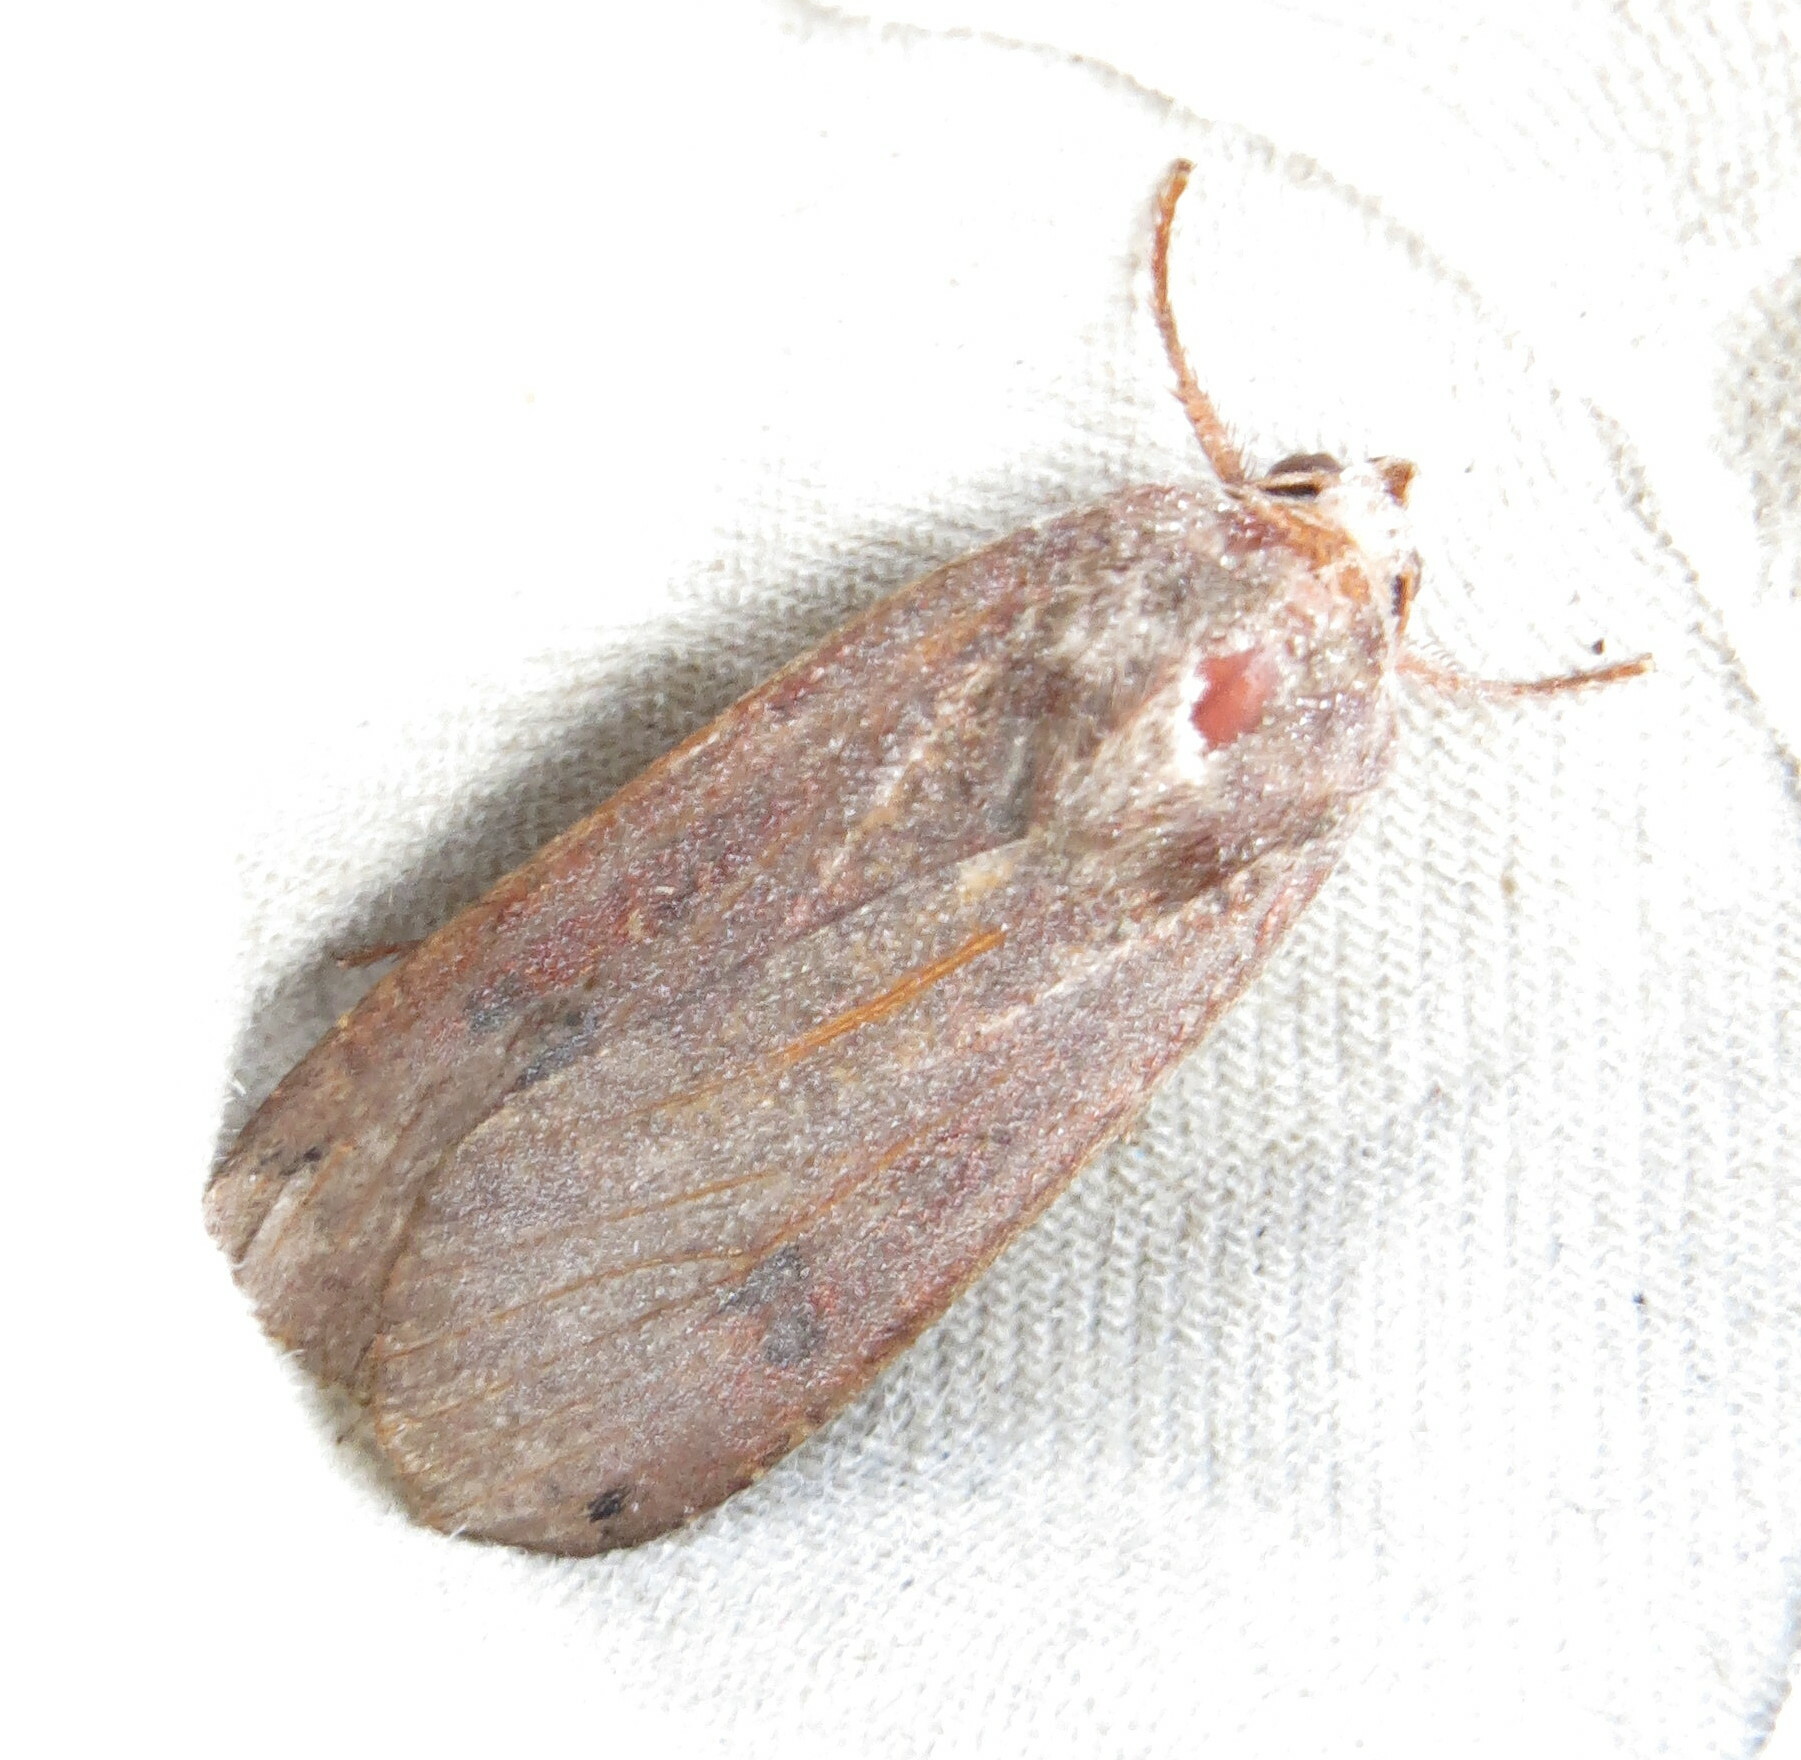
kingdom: Animalia
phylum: Arthropoda
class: Insecta
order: Lepidoptera
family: Noctuidae
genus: Noctua
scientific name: Noctua pronuba
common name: Large yellow underwing
